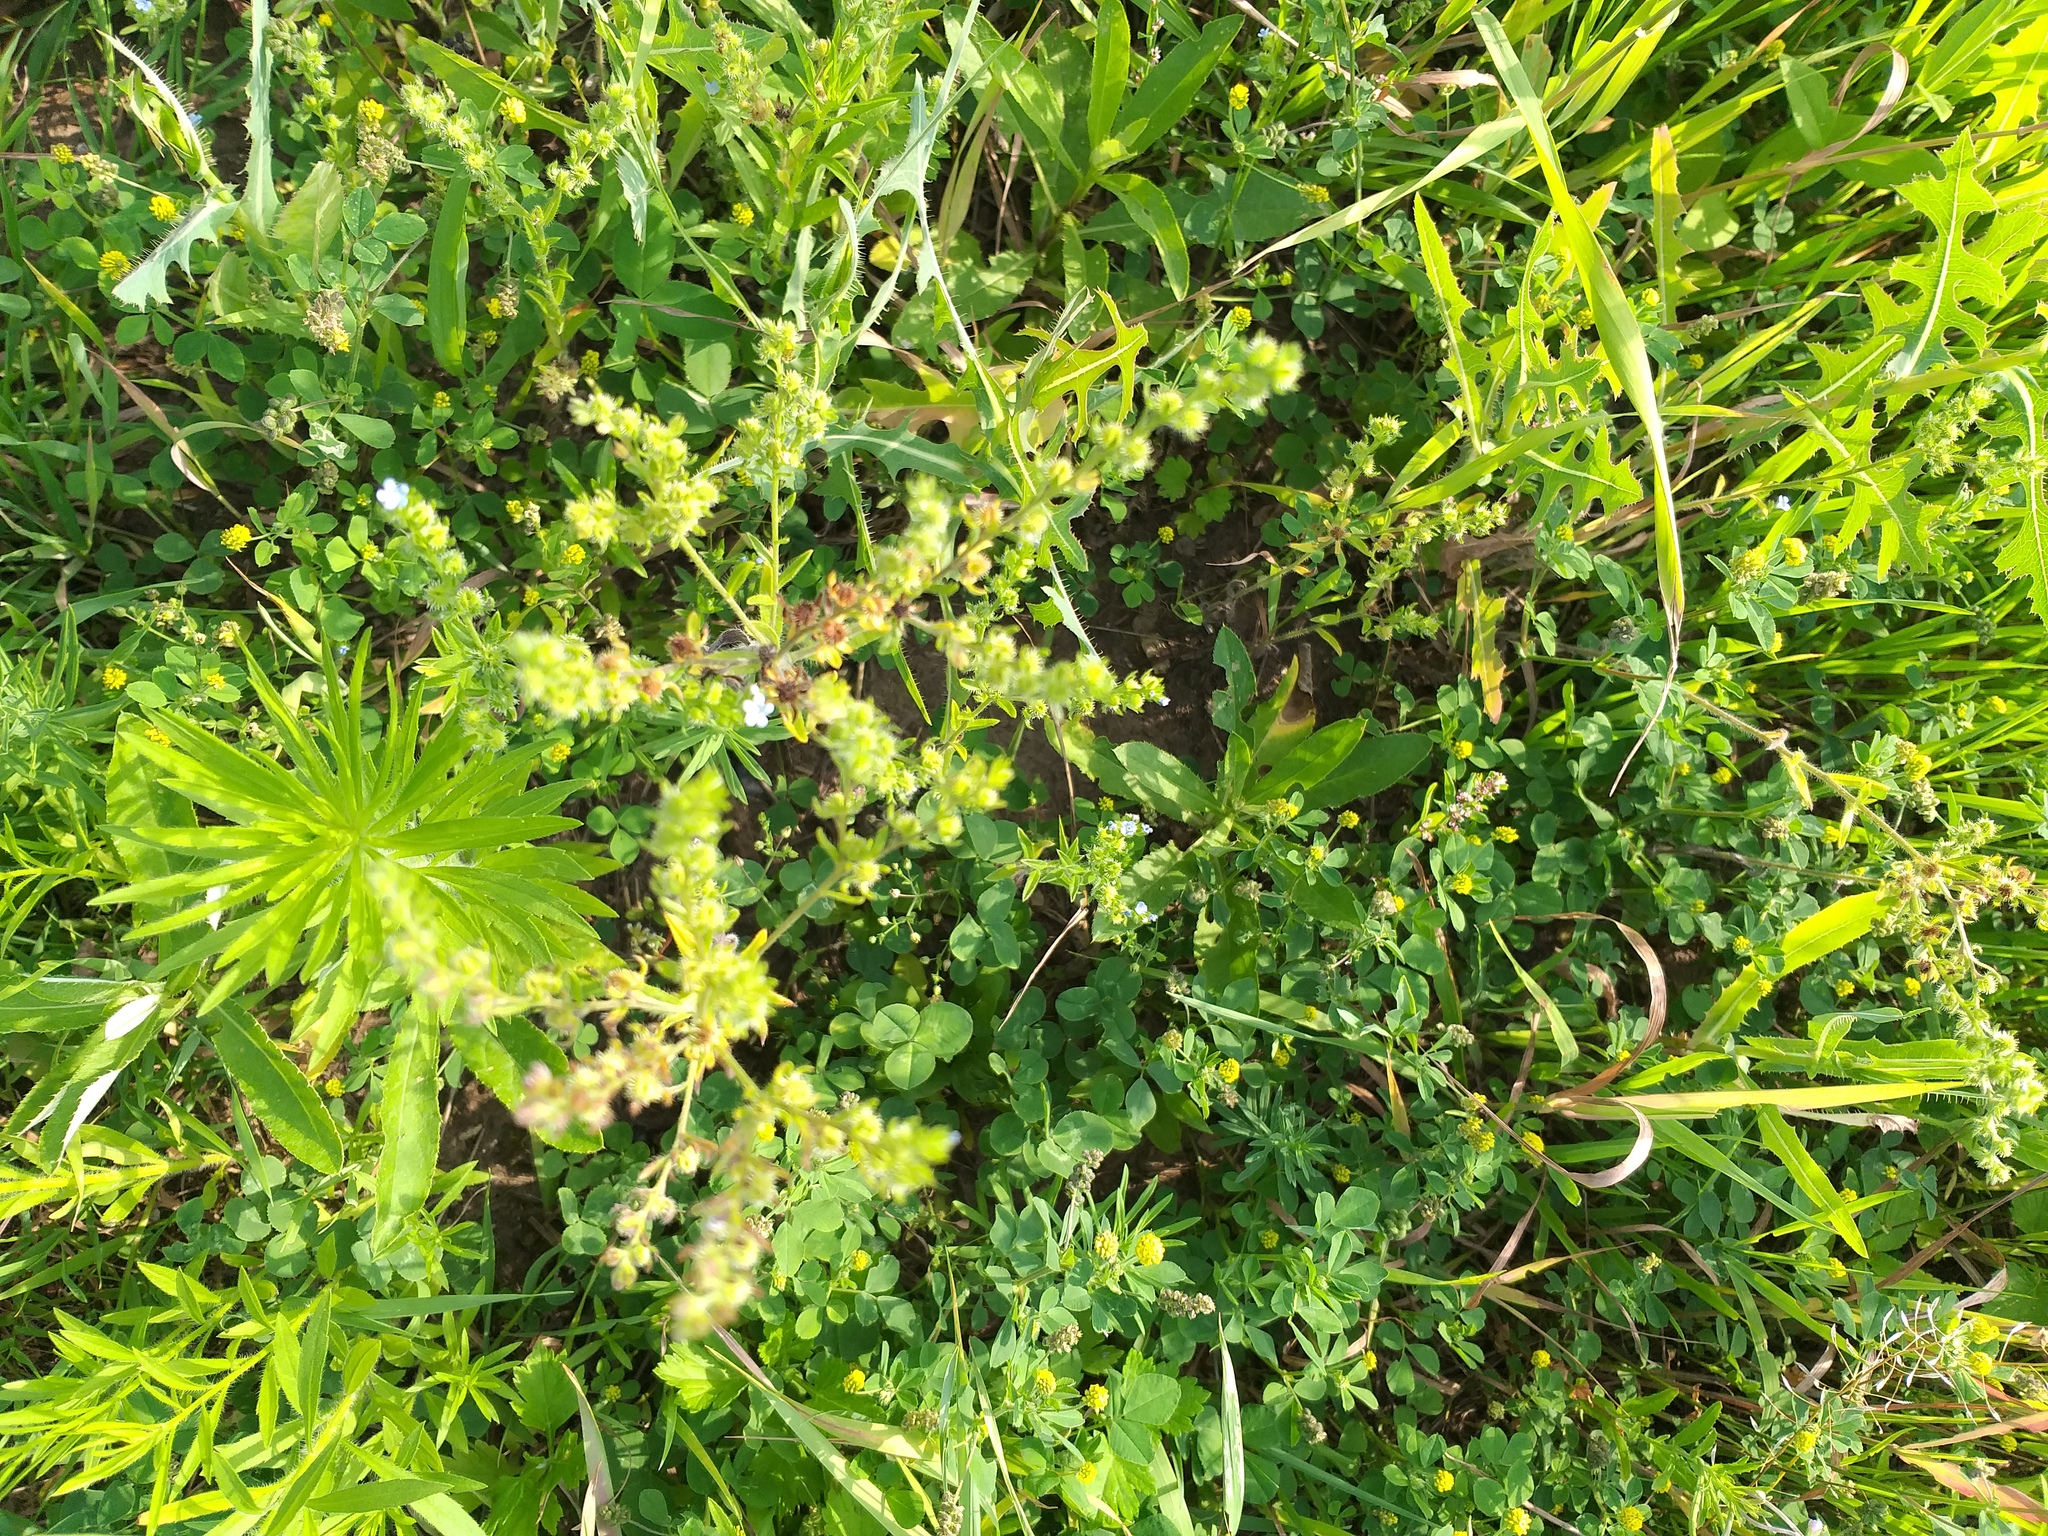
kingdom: Plantae
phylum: Tracheophyta
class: Magnoliopsida
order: Boraginales
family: Boraginaceae
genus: Lappula
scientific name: Lappula squarrosa
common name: European stickseed
